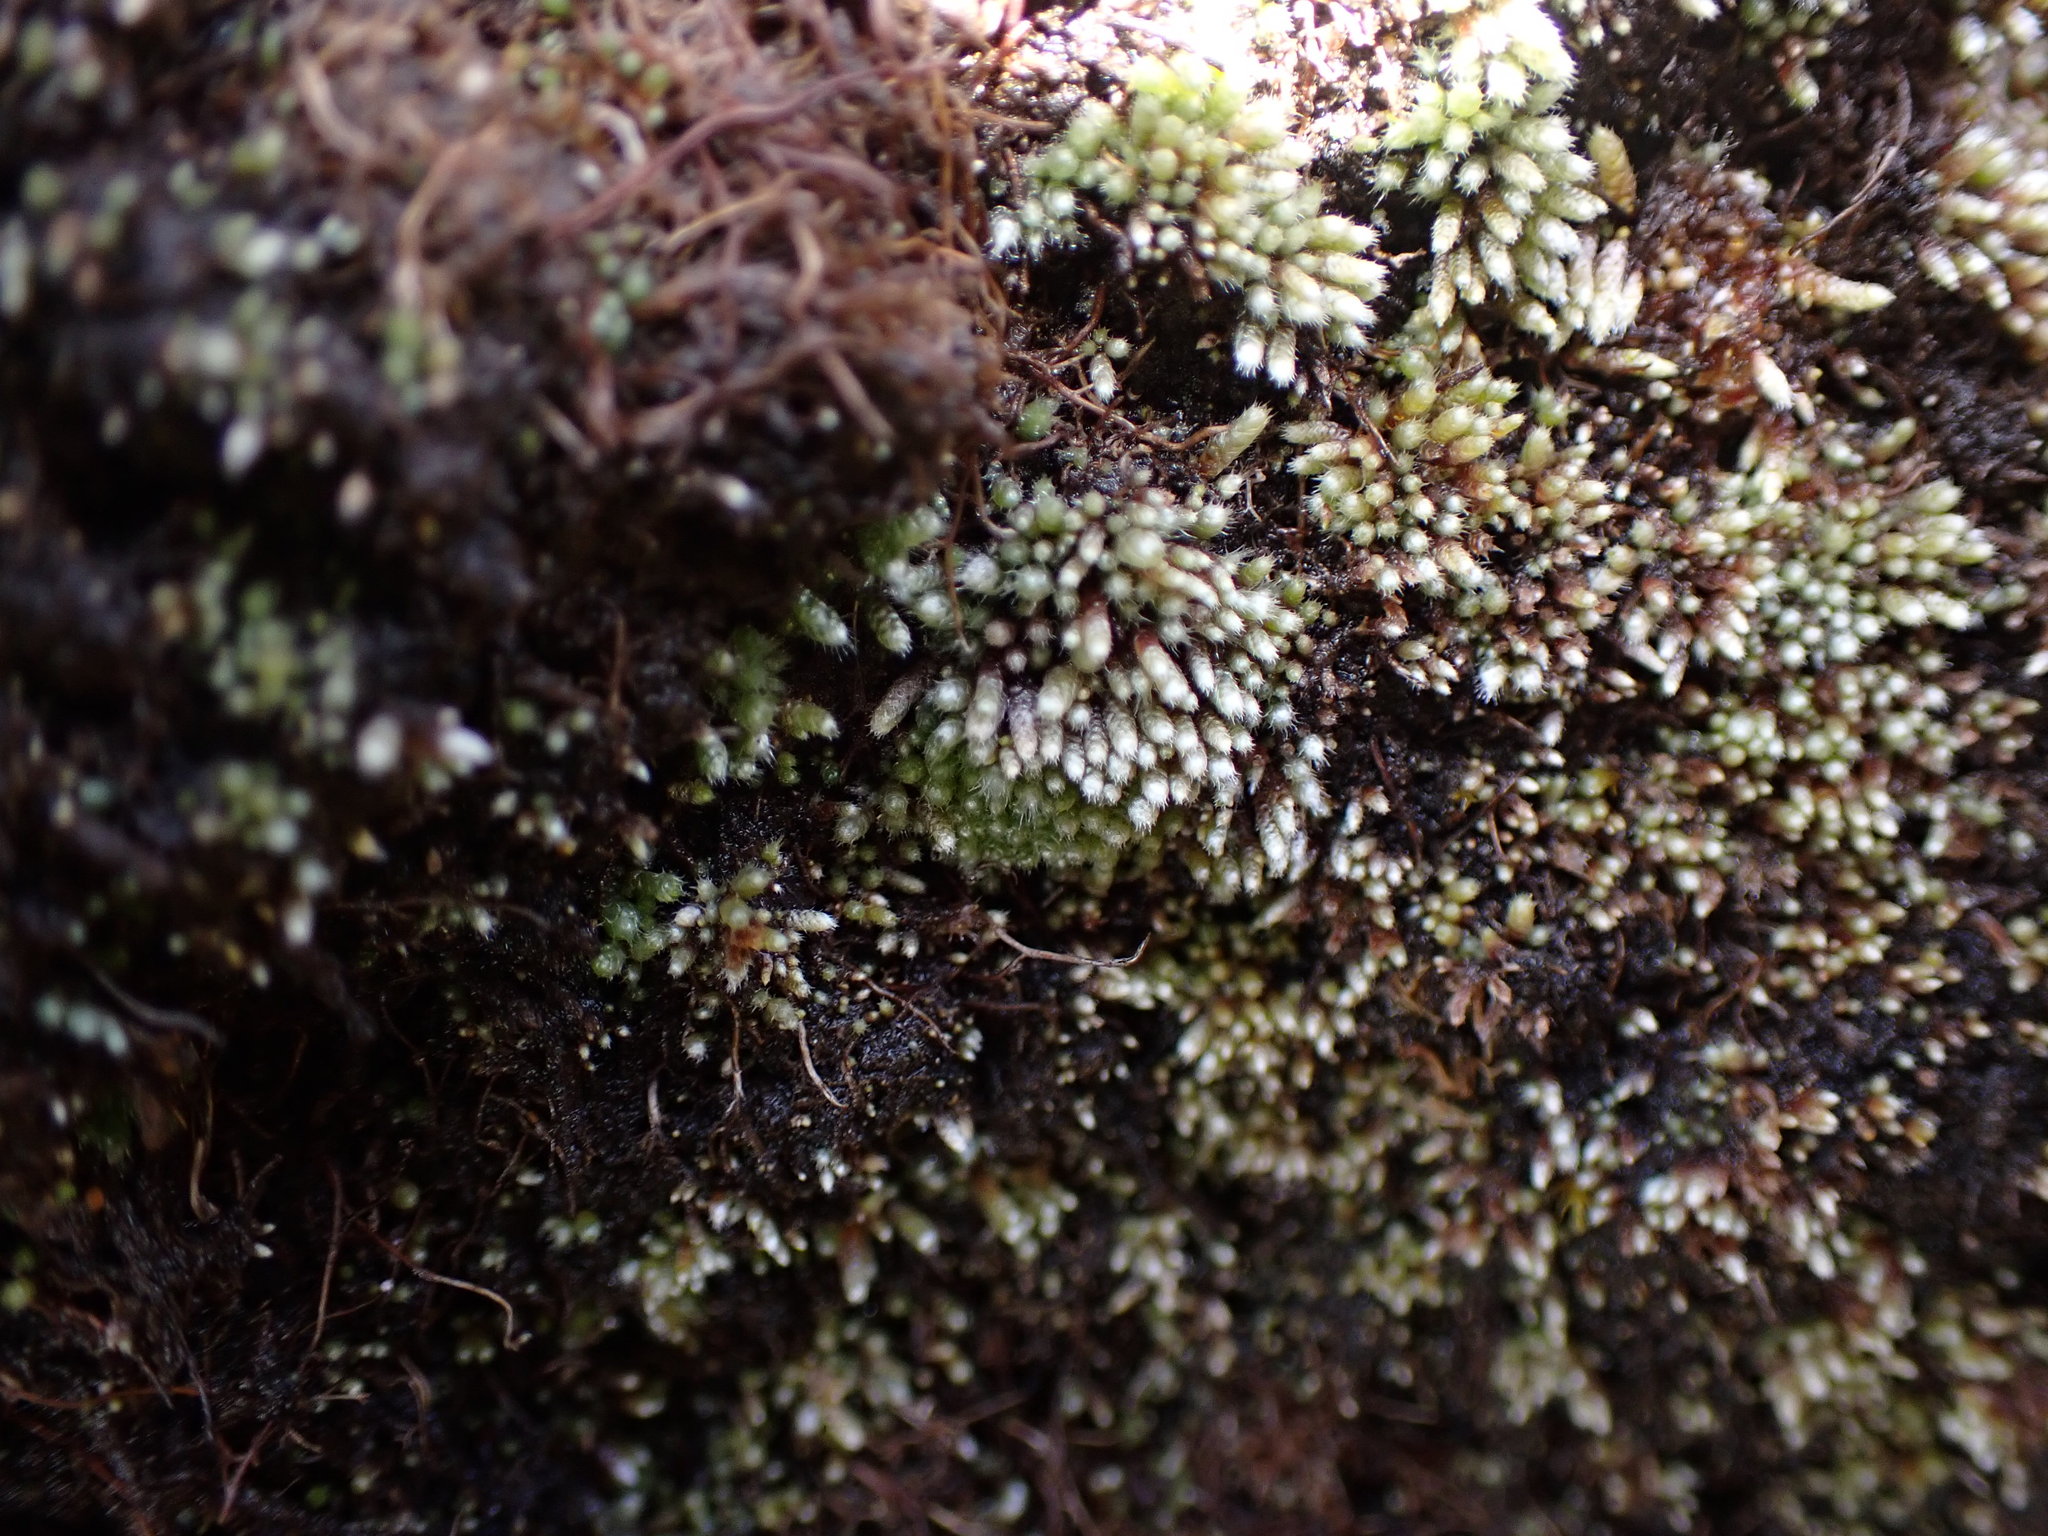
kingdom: Plantae
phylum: Bryophyta
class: Bryopsida
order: Bryales
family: Bryaceae
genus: Bryum
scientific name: Bryum argenteum
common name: Silver-moss
